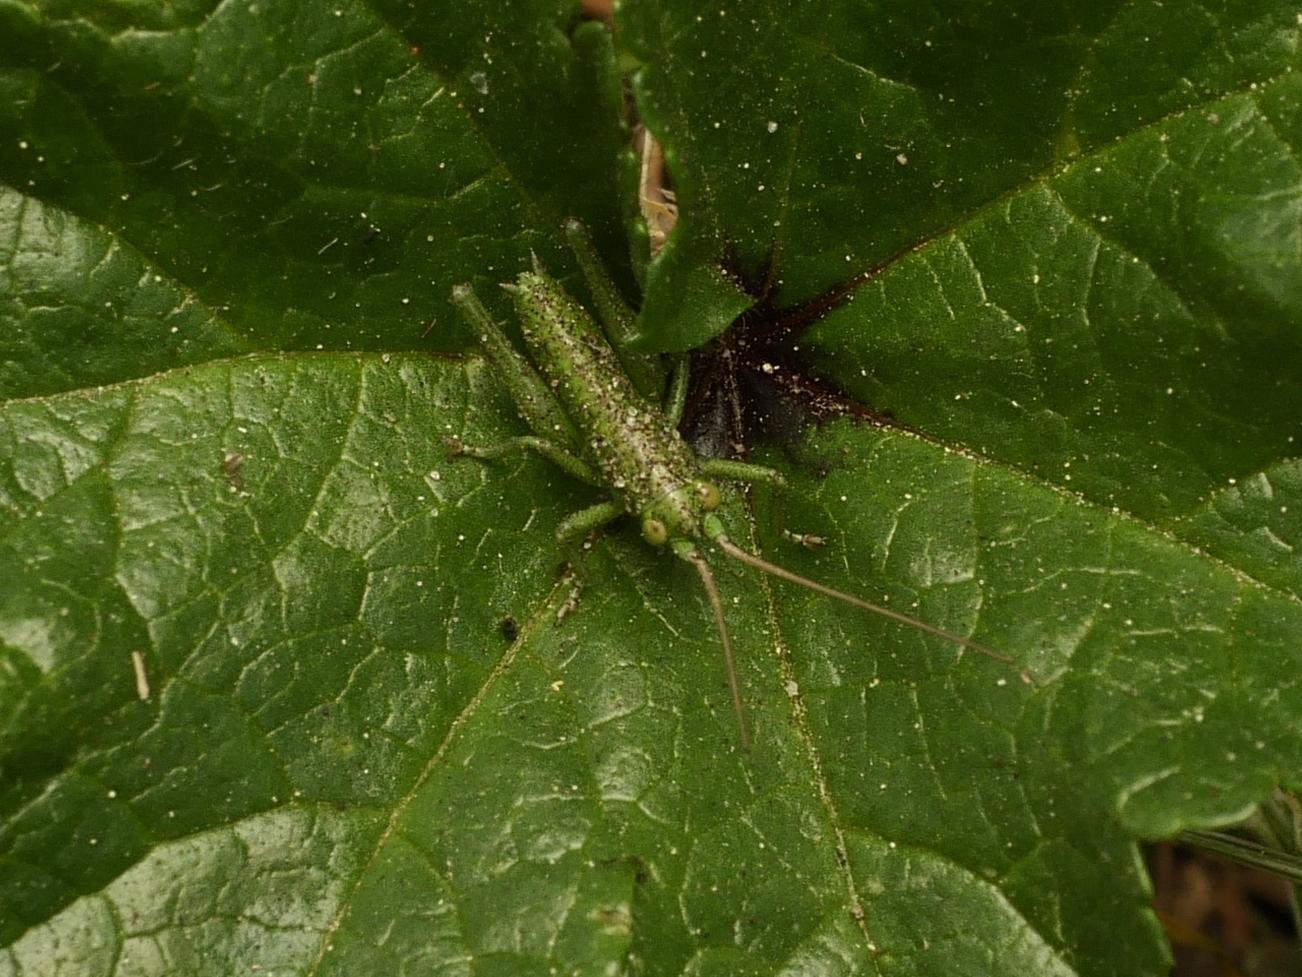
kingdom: Animalia
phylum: Arthropoda
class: Insecta
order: Orthoptera
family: Tettigoniidae
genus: Tettigonia
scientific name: Tettigonia viridissima
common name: Great green bush-cricket
